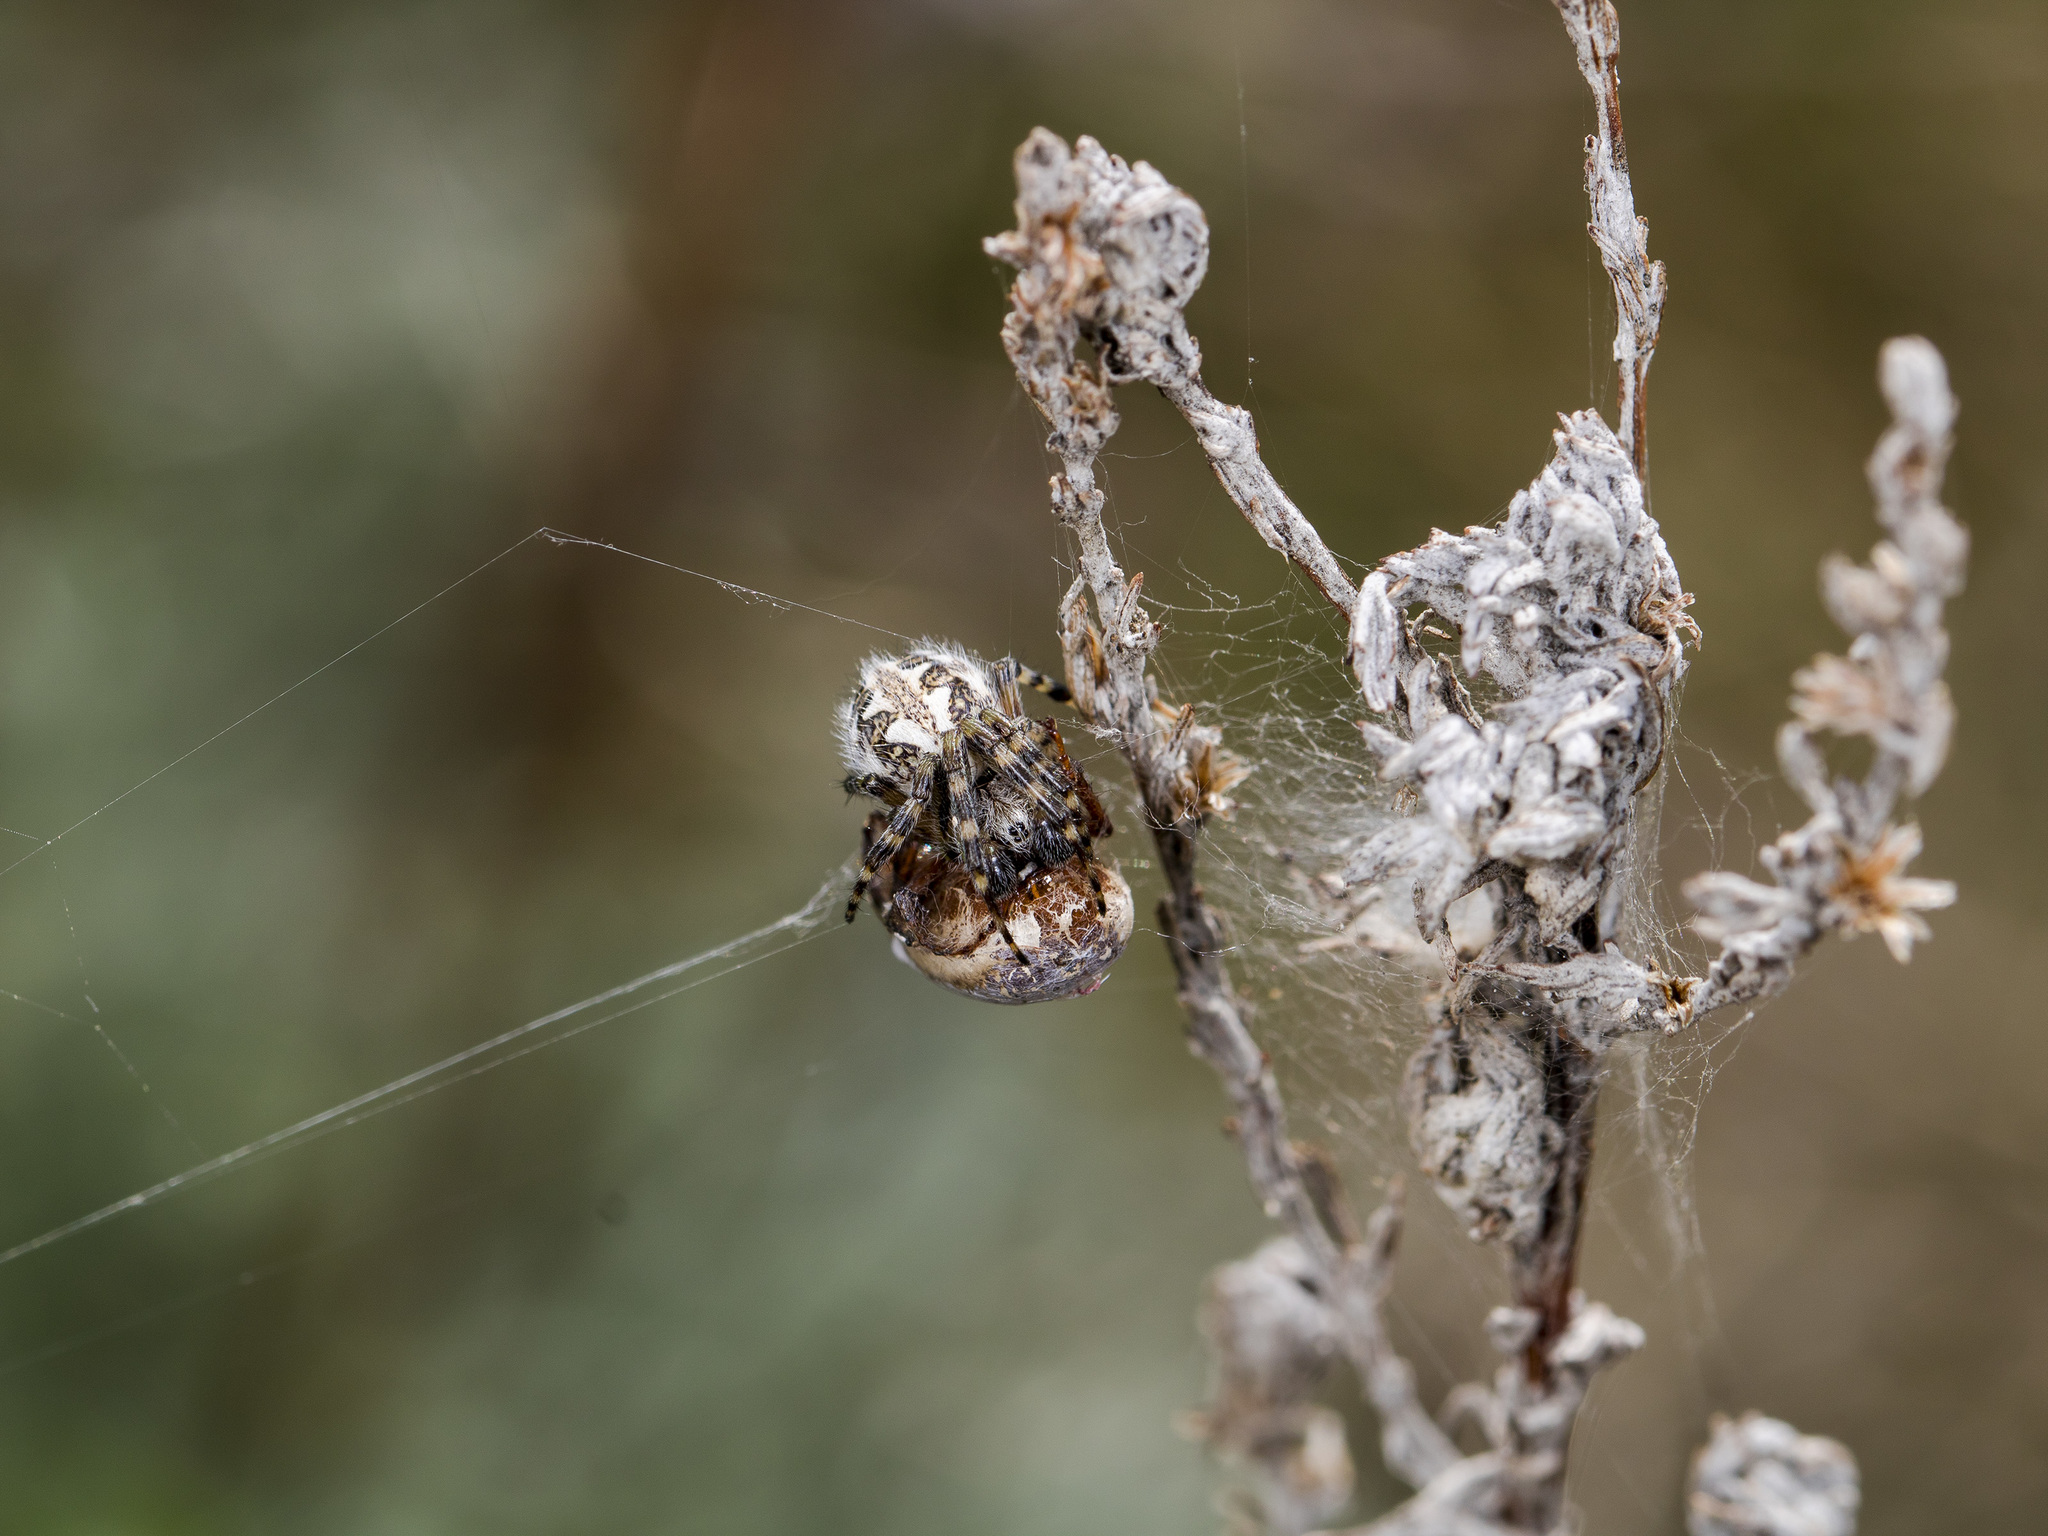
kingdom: Animalia
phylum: Arthropoda
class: Arachnida
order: Araneae
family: Araneidae
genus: Aculepeira
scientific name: Aculepeira armida
